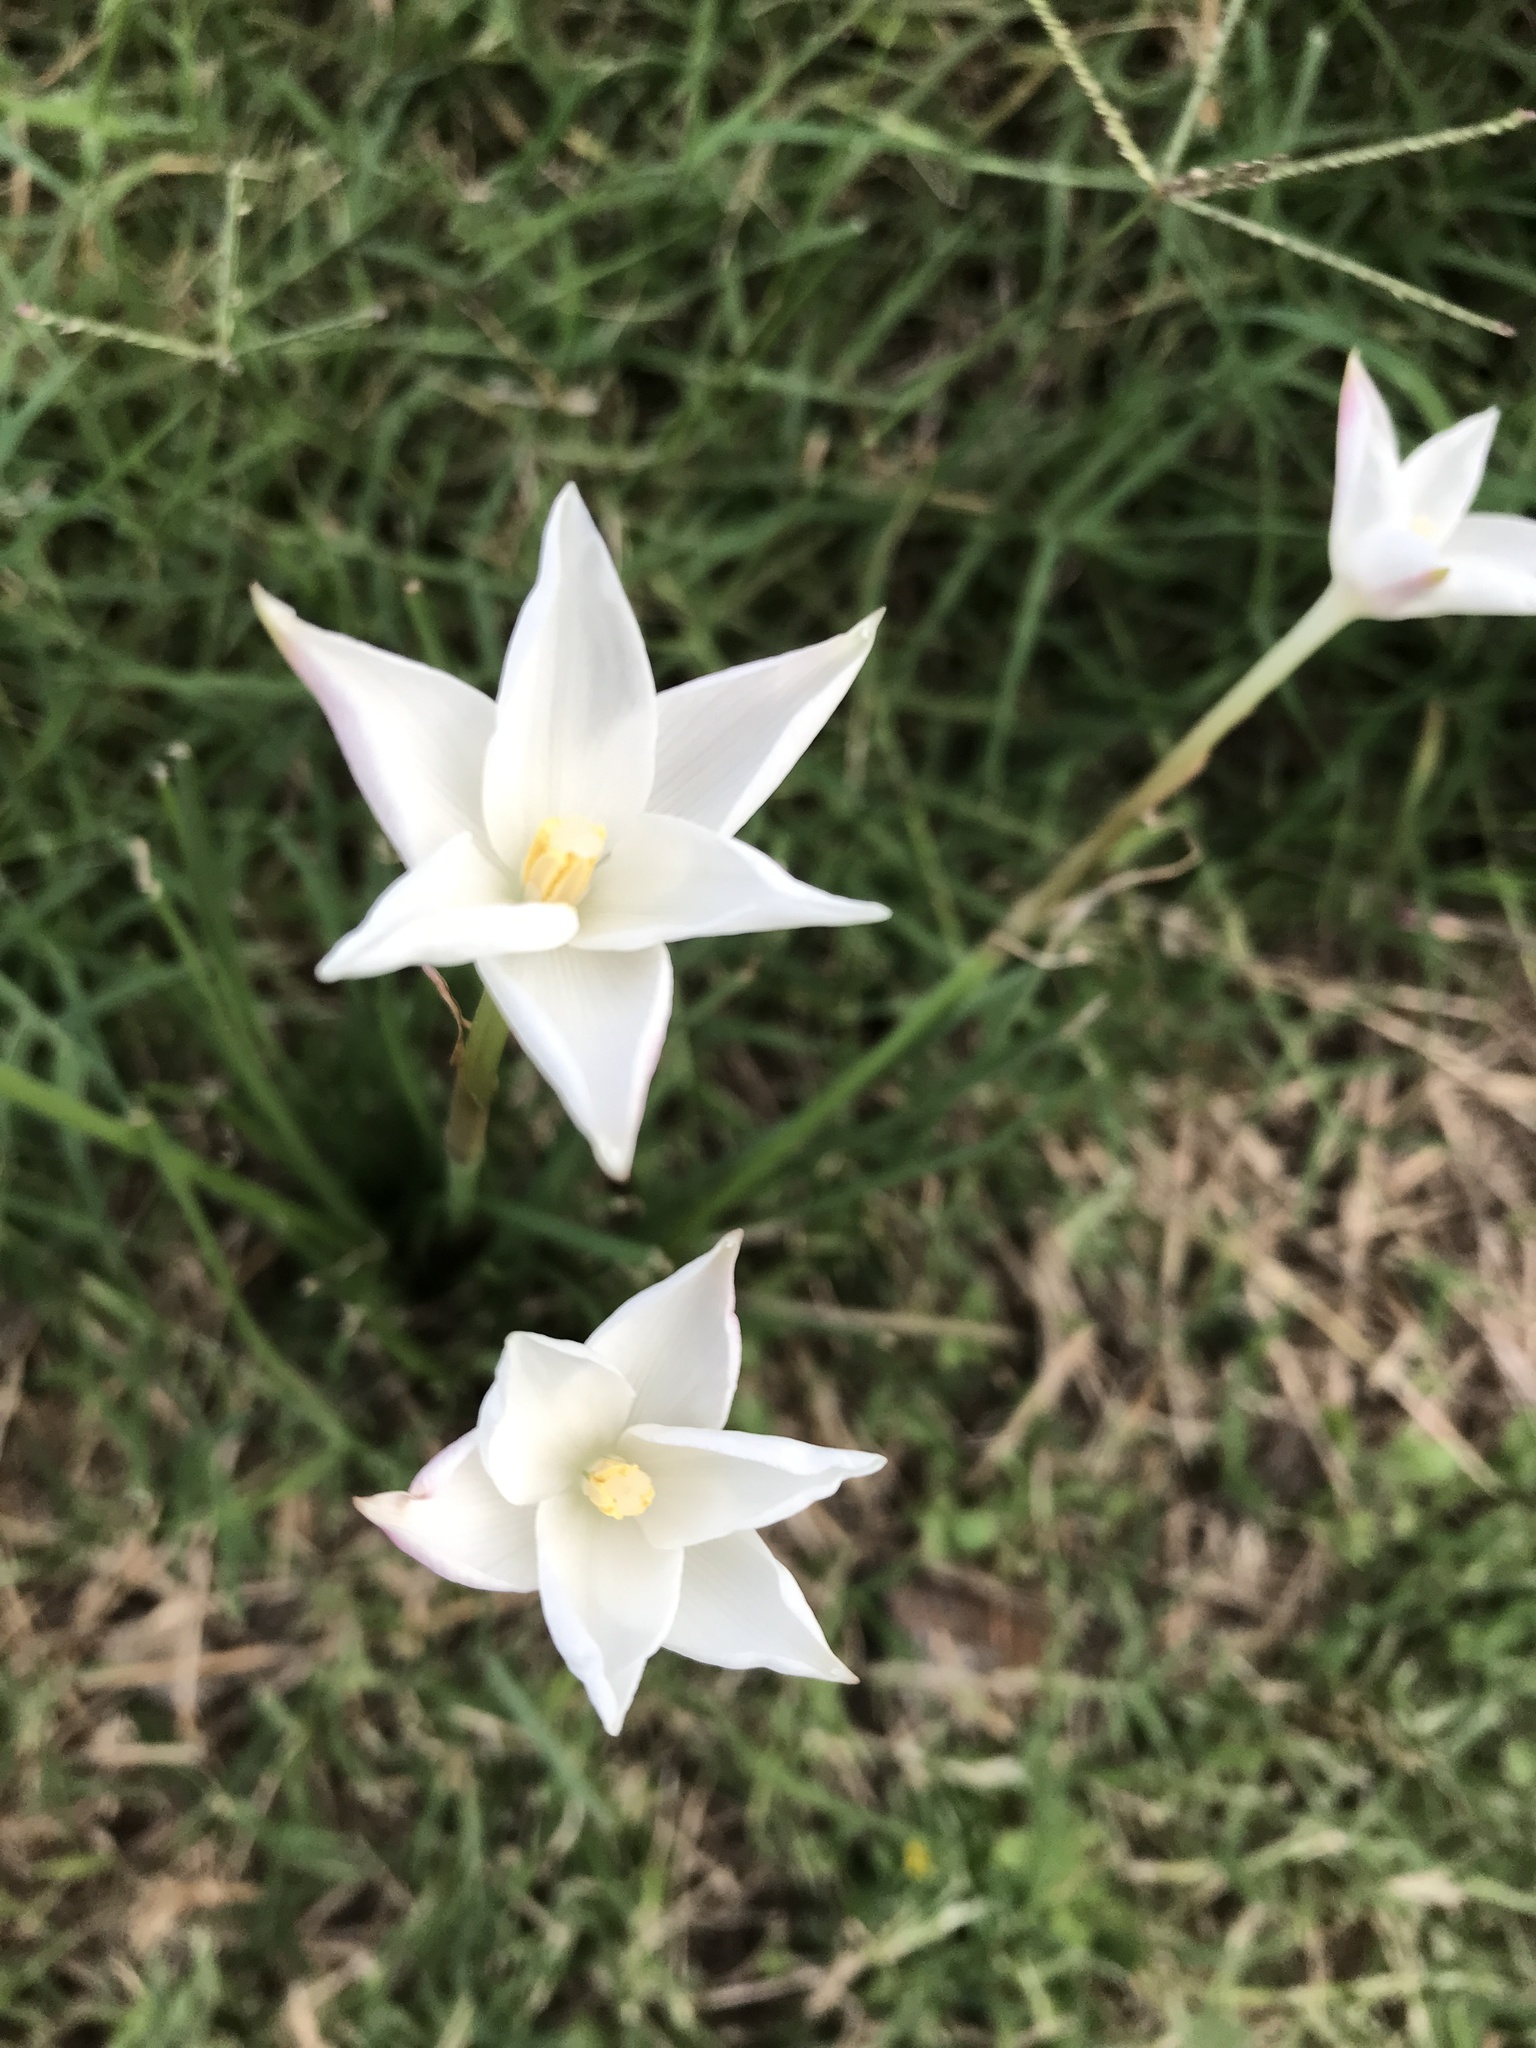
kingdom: Plantae
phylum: Tracheophyta
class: Liliopsida
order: Asparagales
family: Amaryllidaceae
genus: Zephyranthes
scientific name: Zephyranthes chlorosolen
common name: Evening rain-lily
